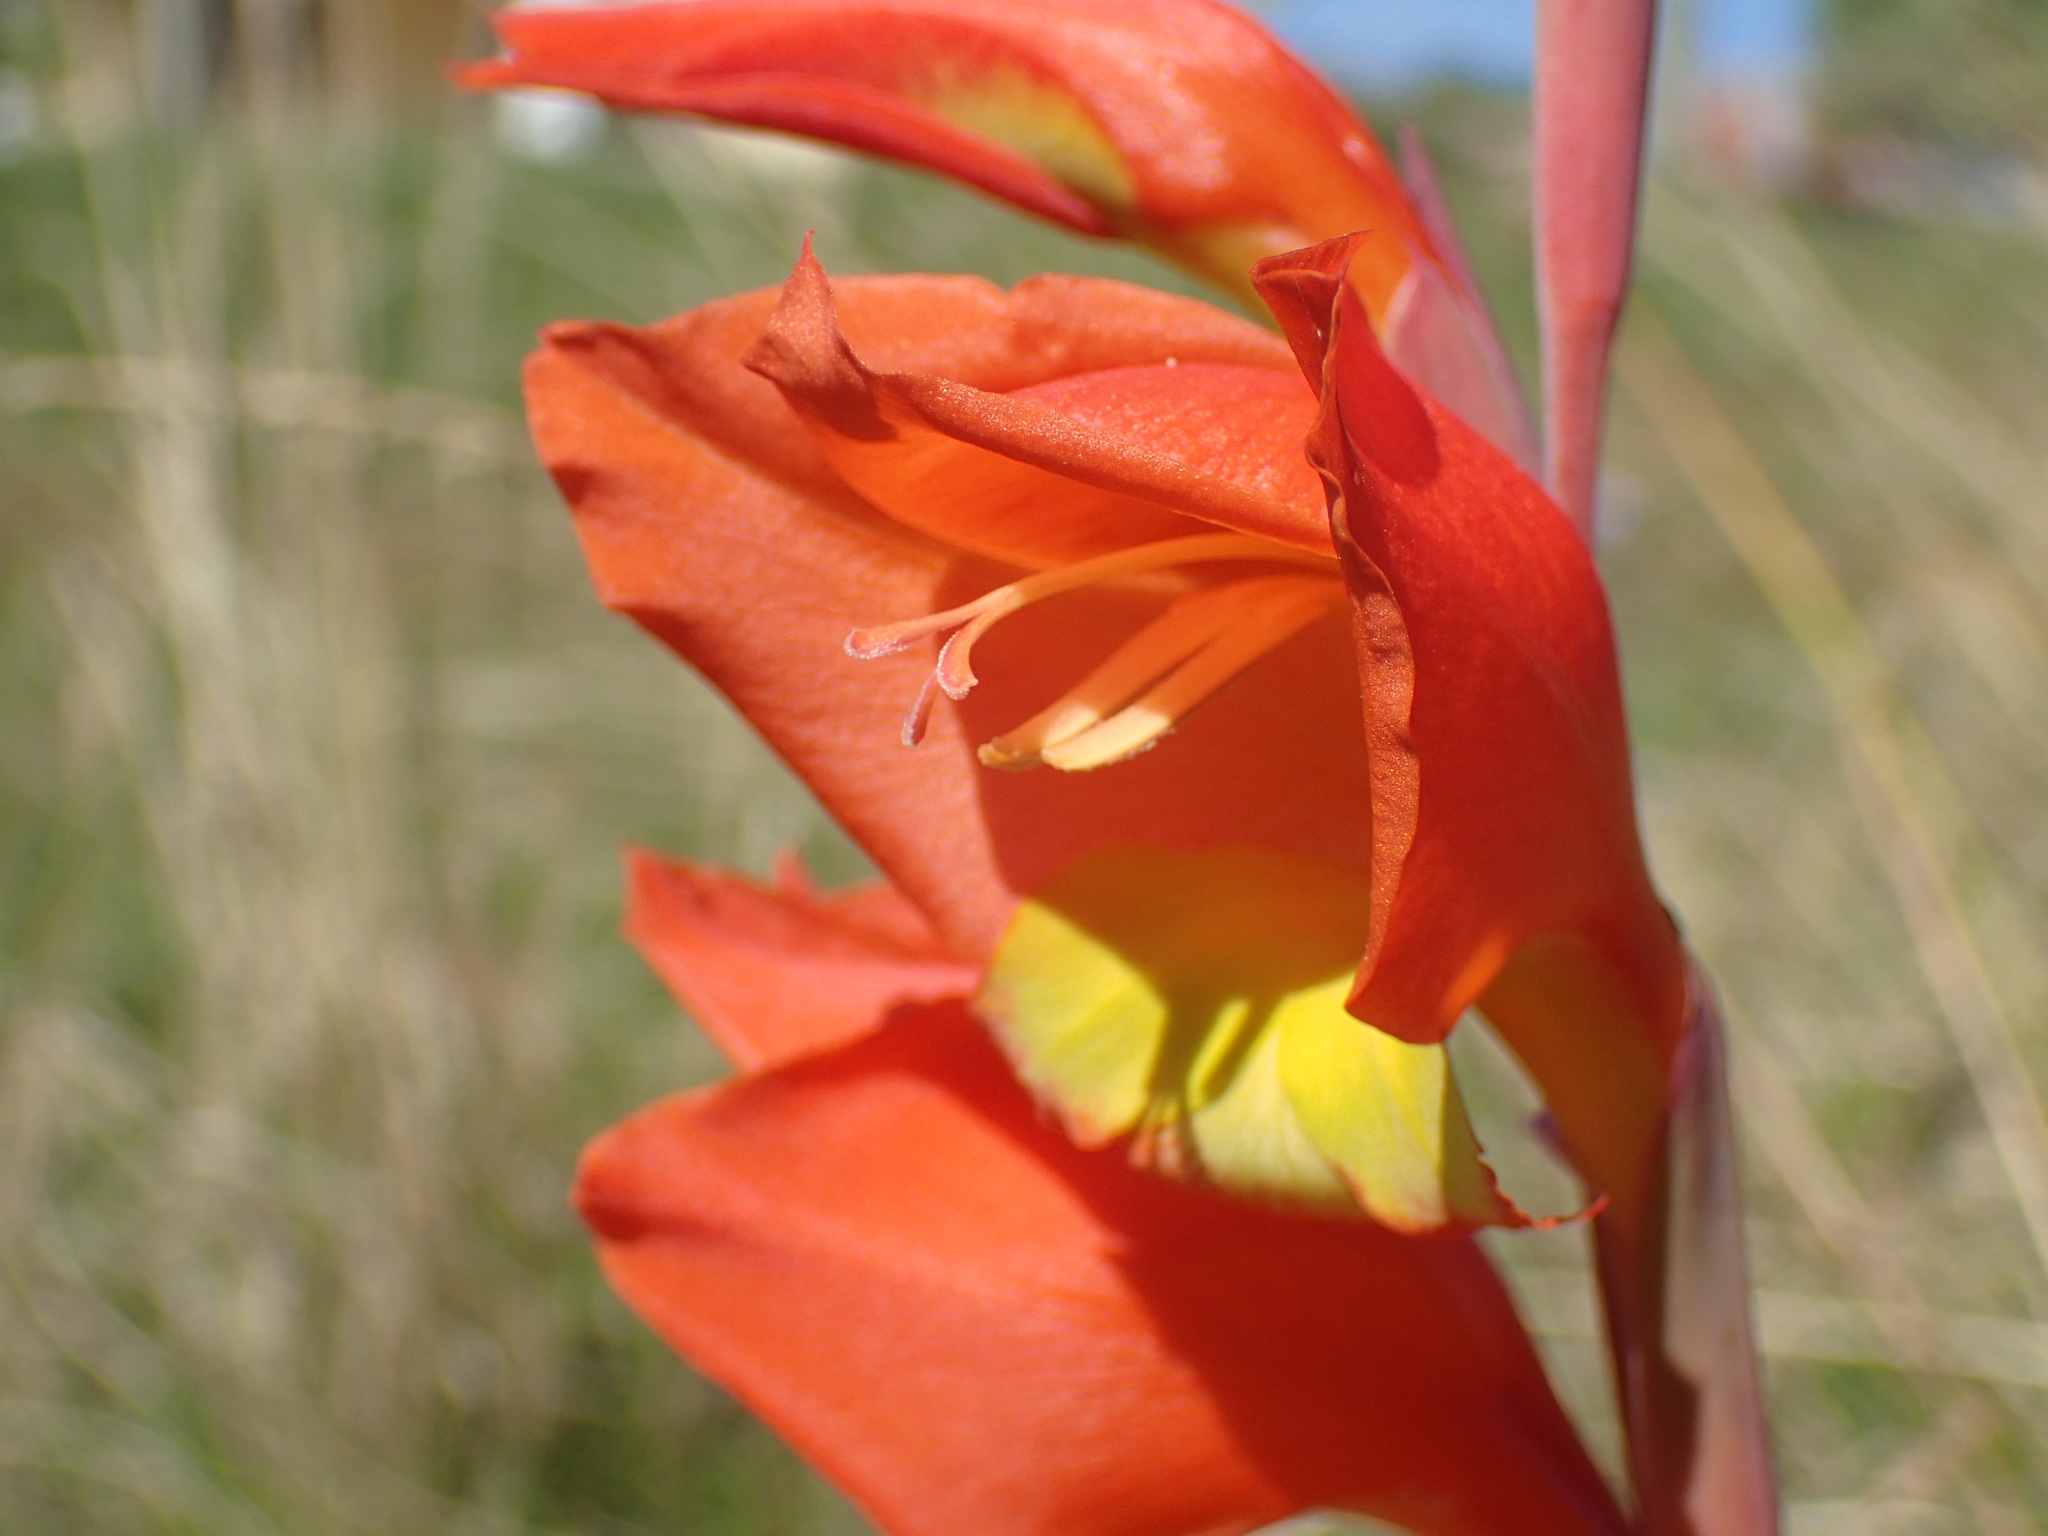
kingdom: Plantae
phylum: Tracheophyta
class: Liliopsida
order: Asparagales
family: Iridaceae
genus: Gladiolus
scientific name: Gladiolus dalenii
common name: Cornflag
